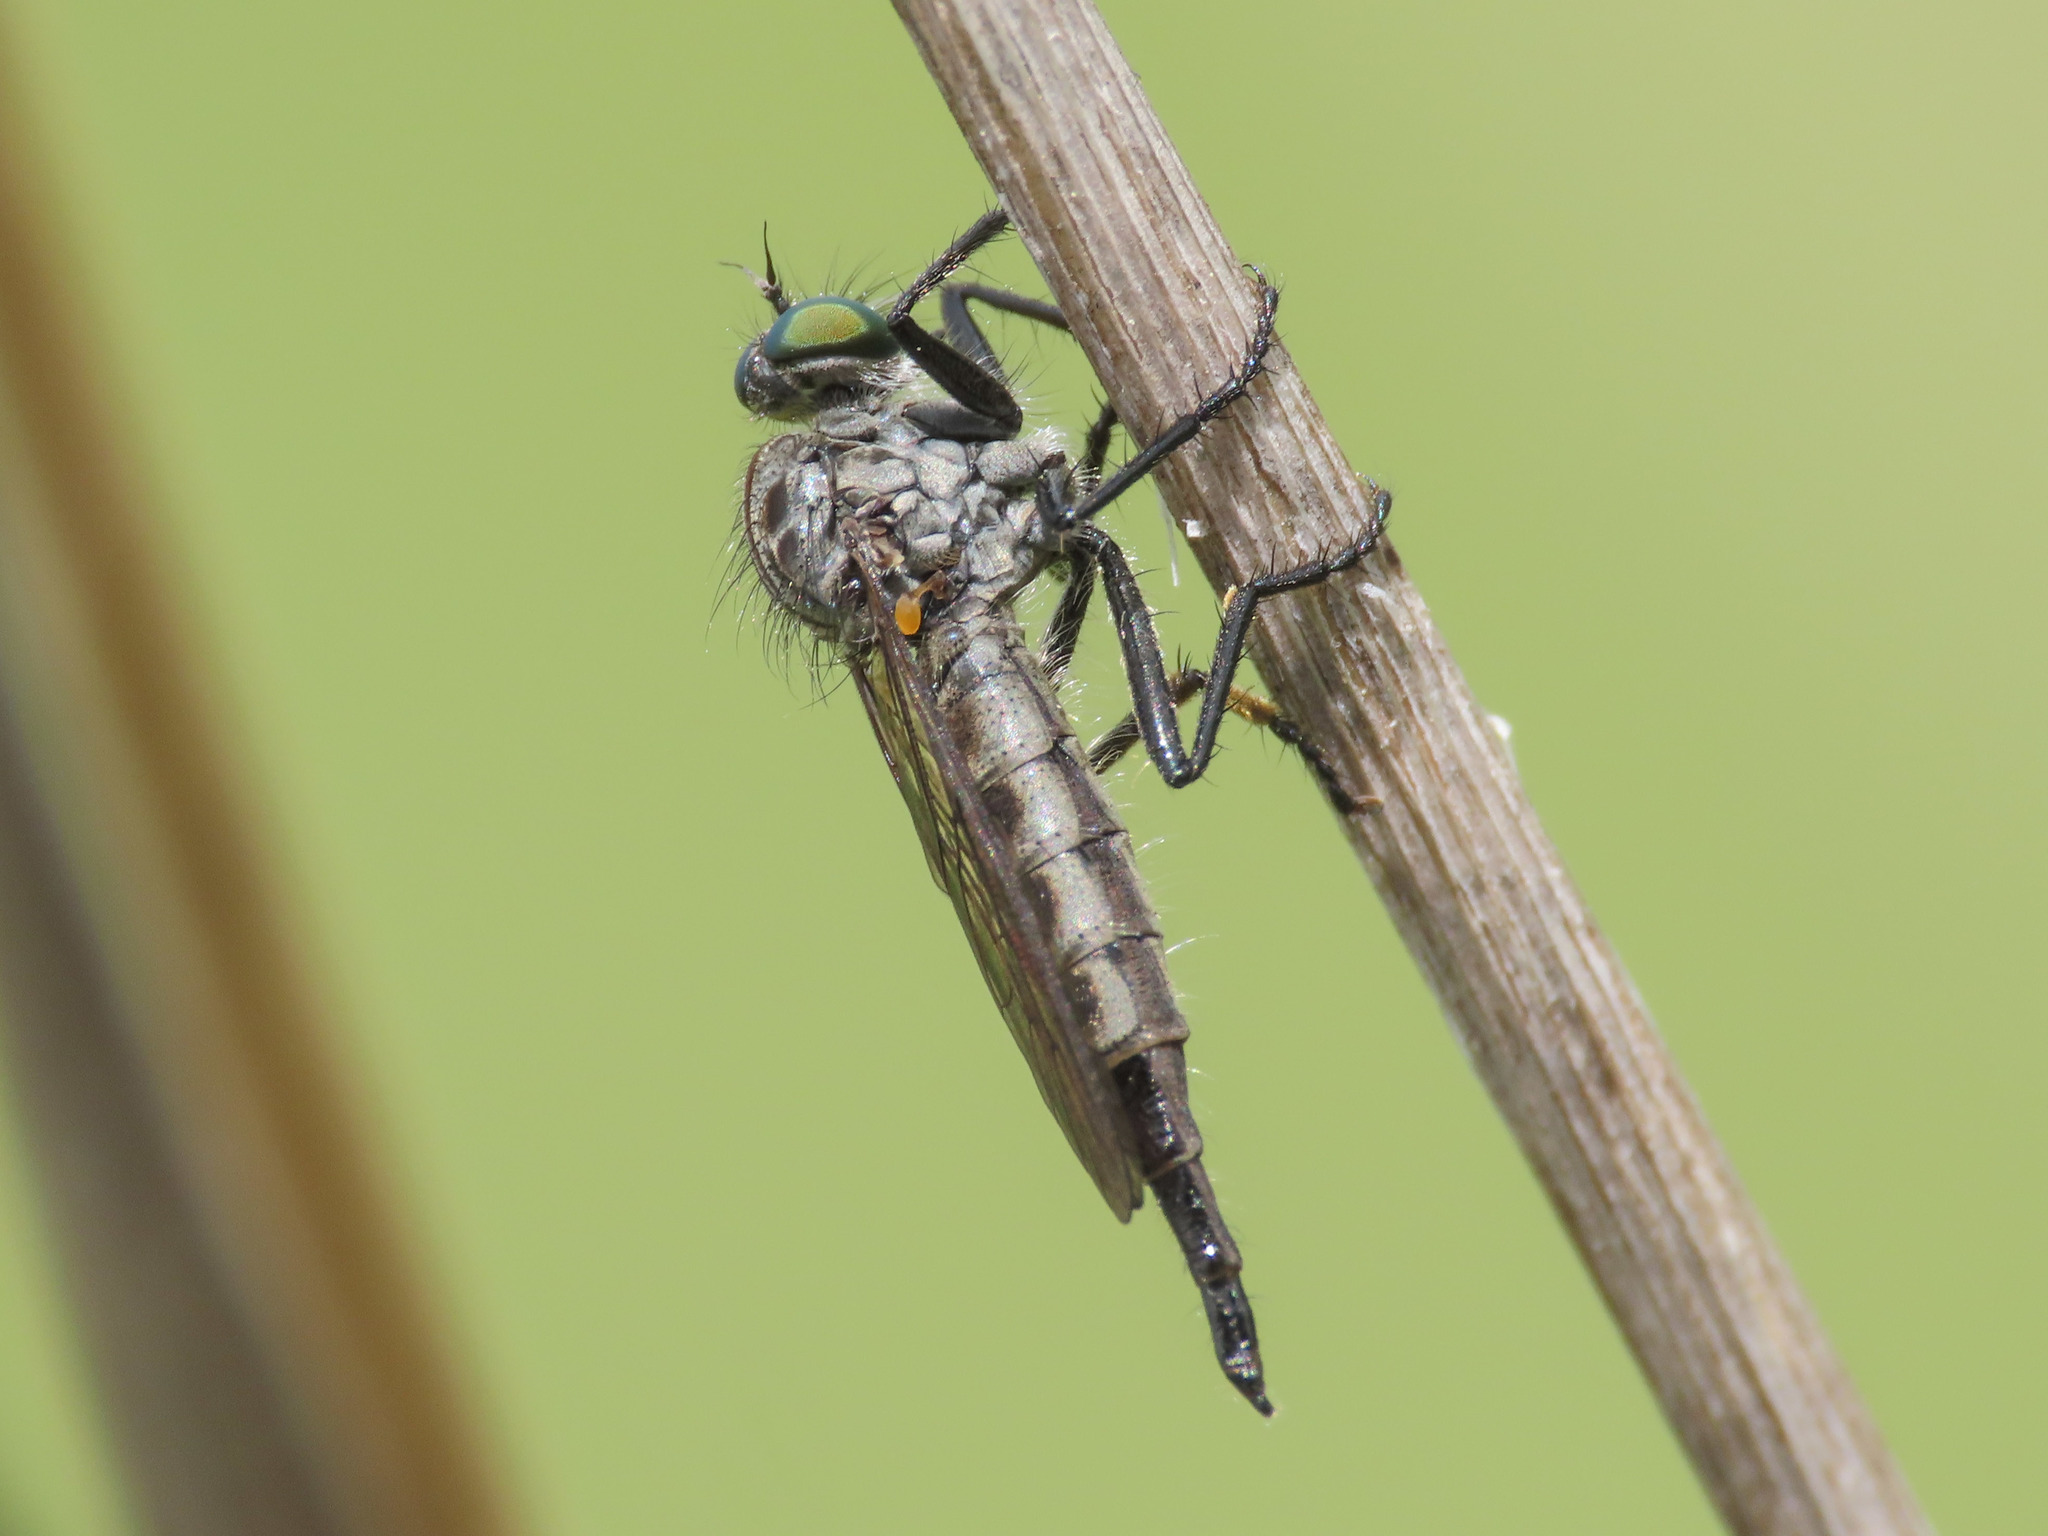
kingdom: Animalia
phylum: Arthropoda
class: Insecta
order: Diptera
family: Asilidae
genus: Neoitamus
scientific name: Neoitamus castellanii
